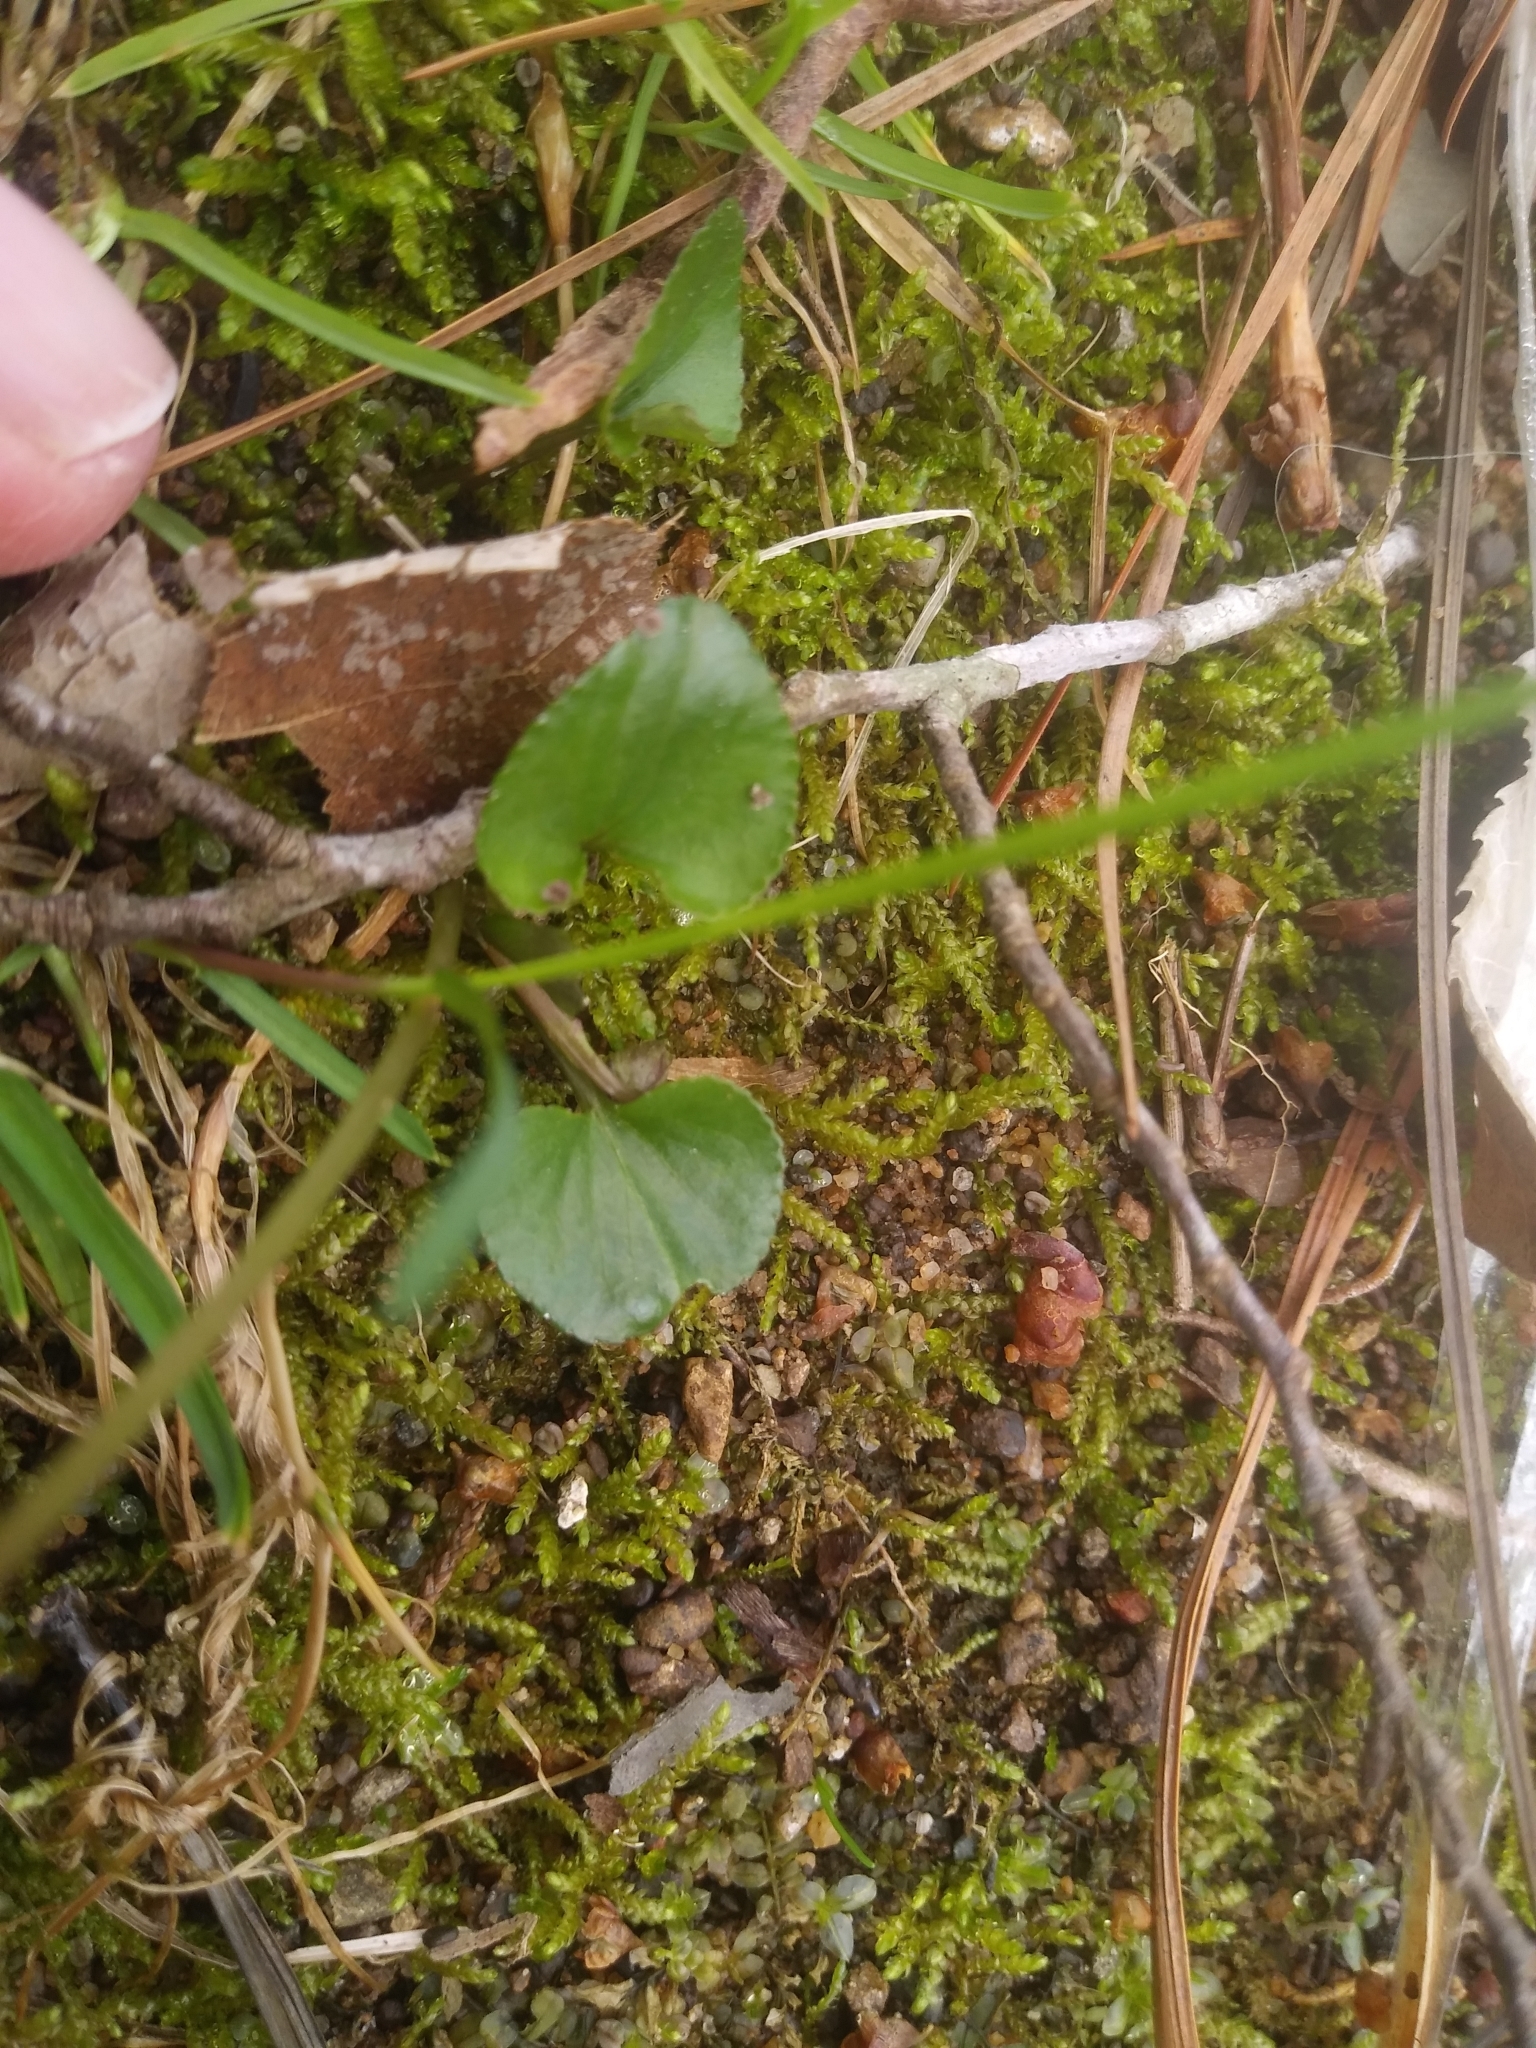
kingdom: Plantae
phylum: Tracheophyta
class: Magnoliopsida
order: Malpighiales
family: Violaceae
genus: Viola
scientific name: Viola sororia
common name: Dooryard violet
